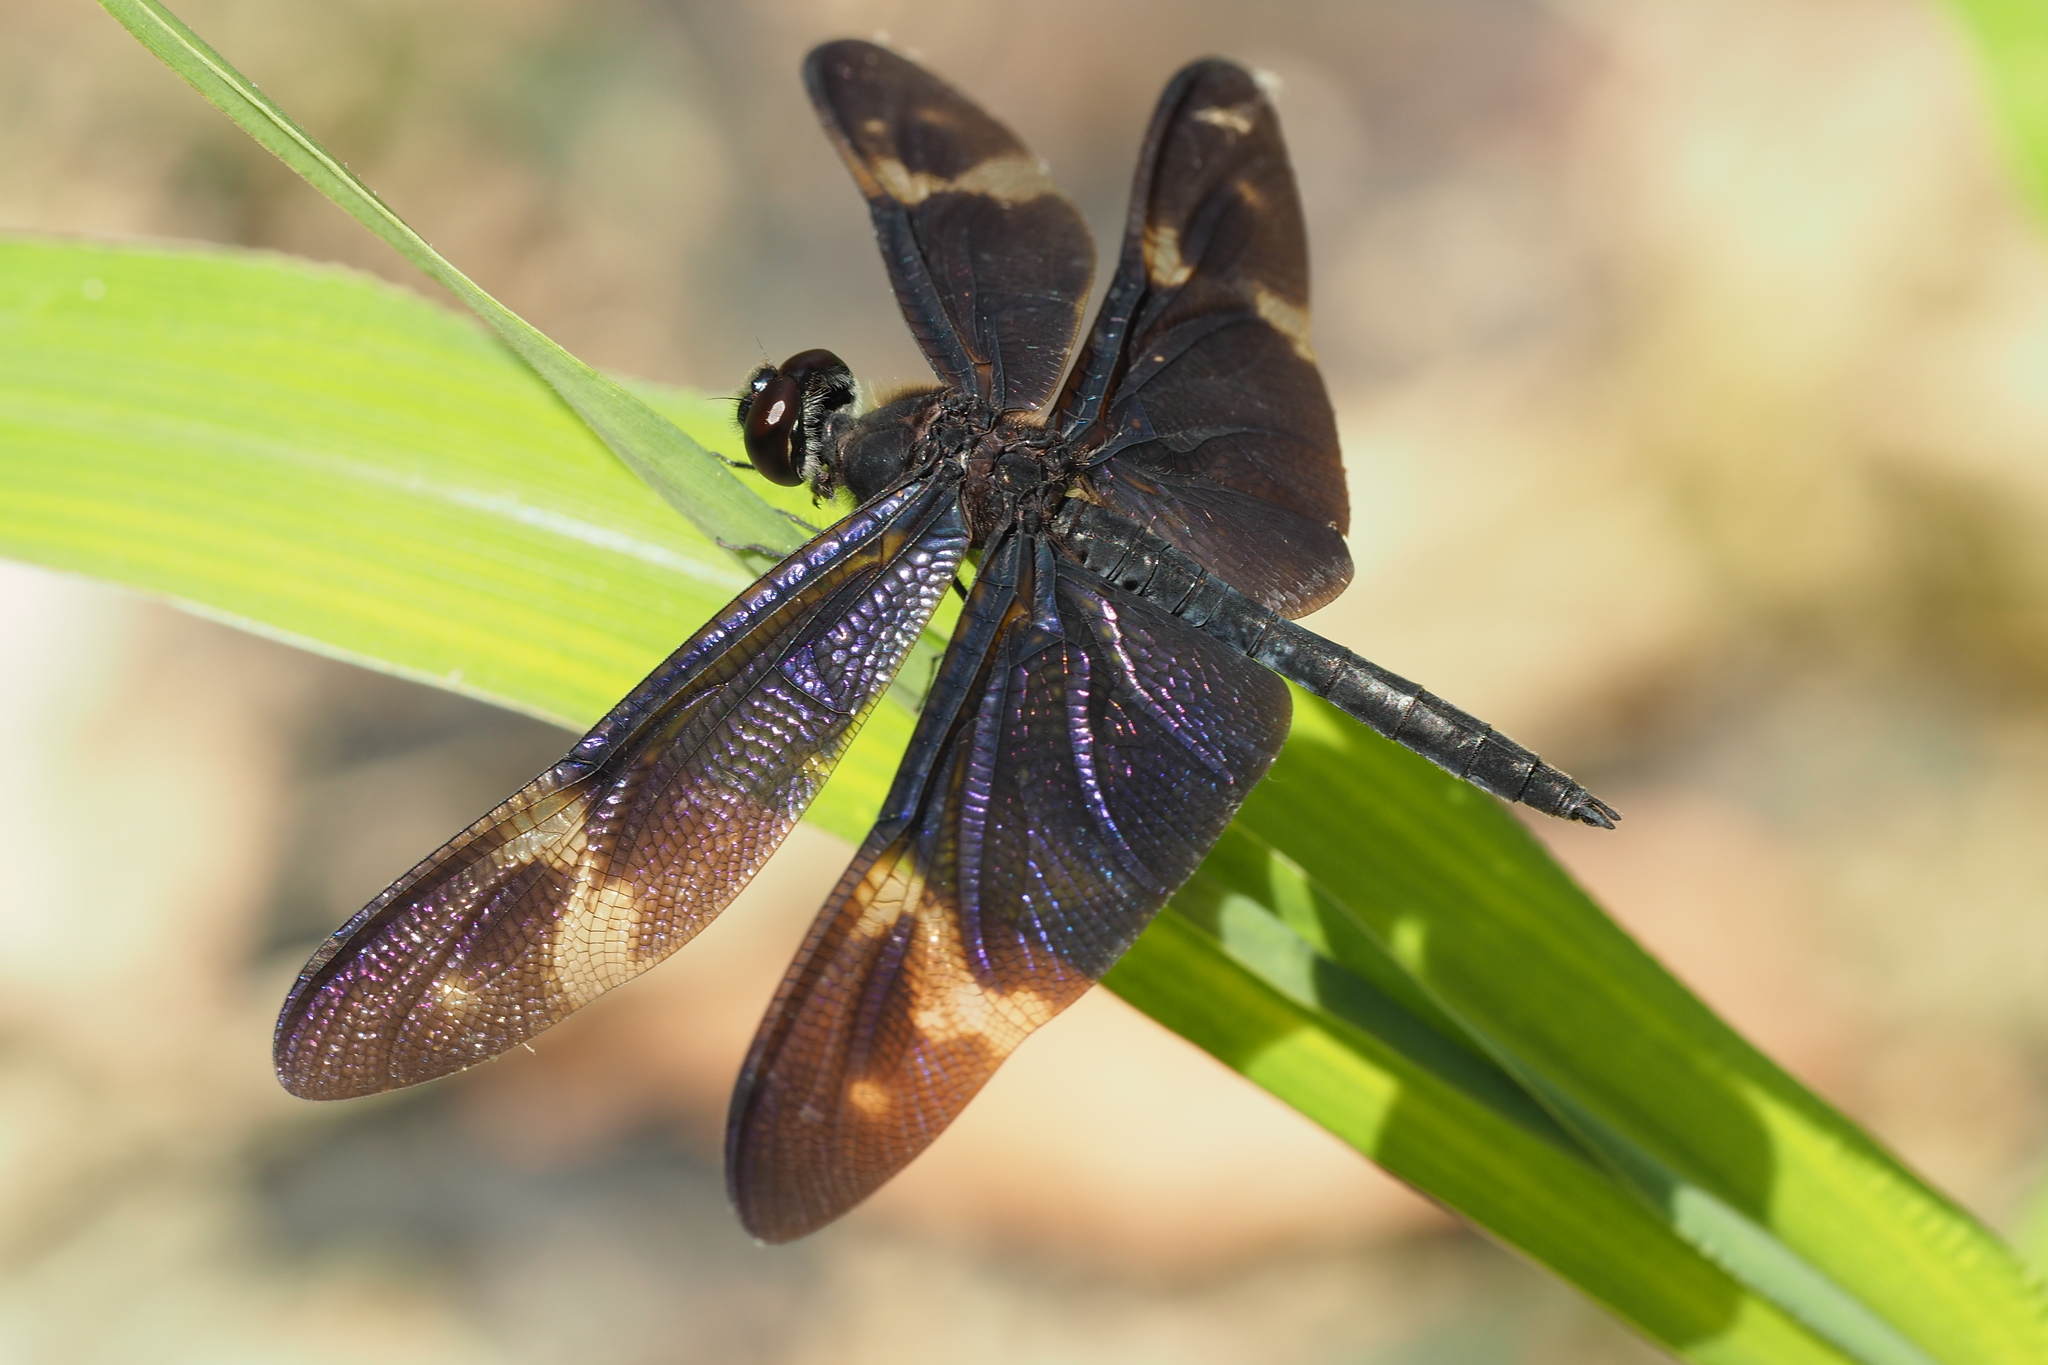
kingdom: Animalia
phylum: Arthropoda
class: Insecta
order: Odonata
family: Libellulidae
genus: Rhyothemis
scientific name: Rhyothemis regia
